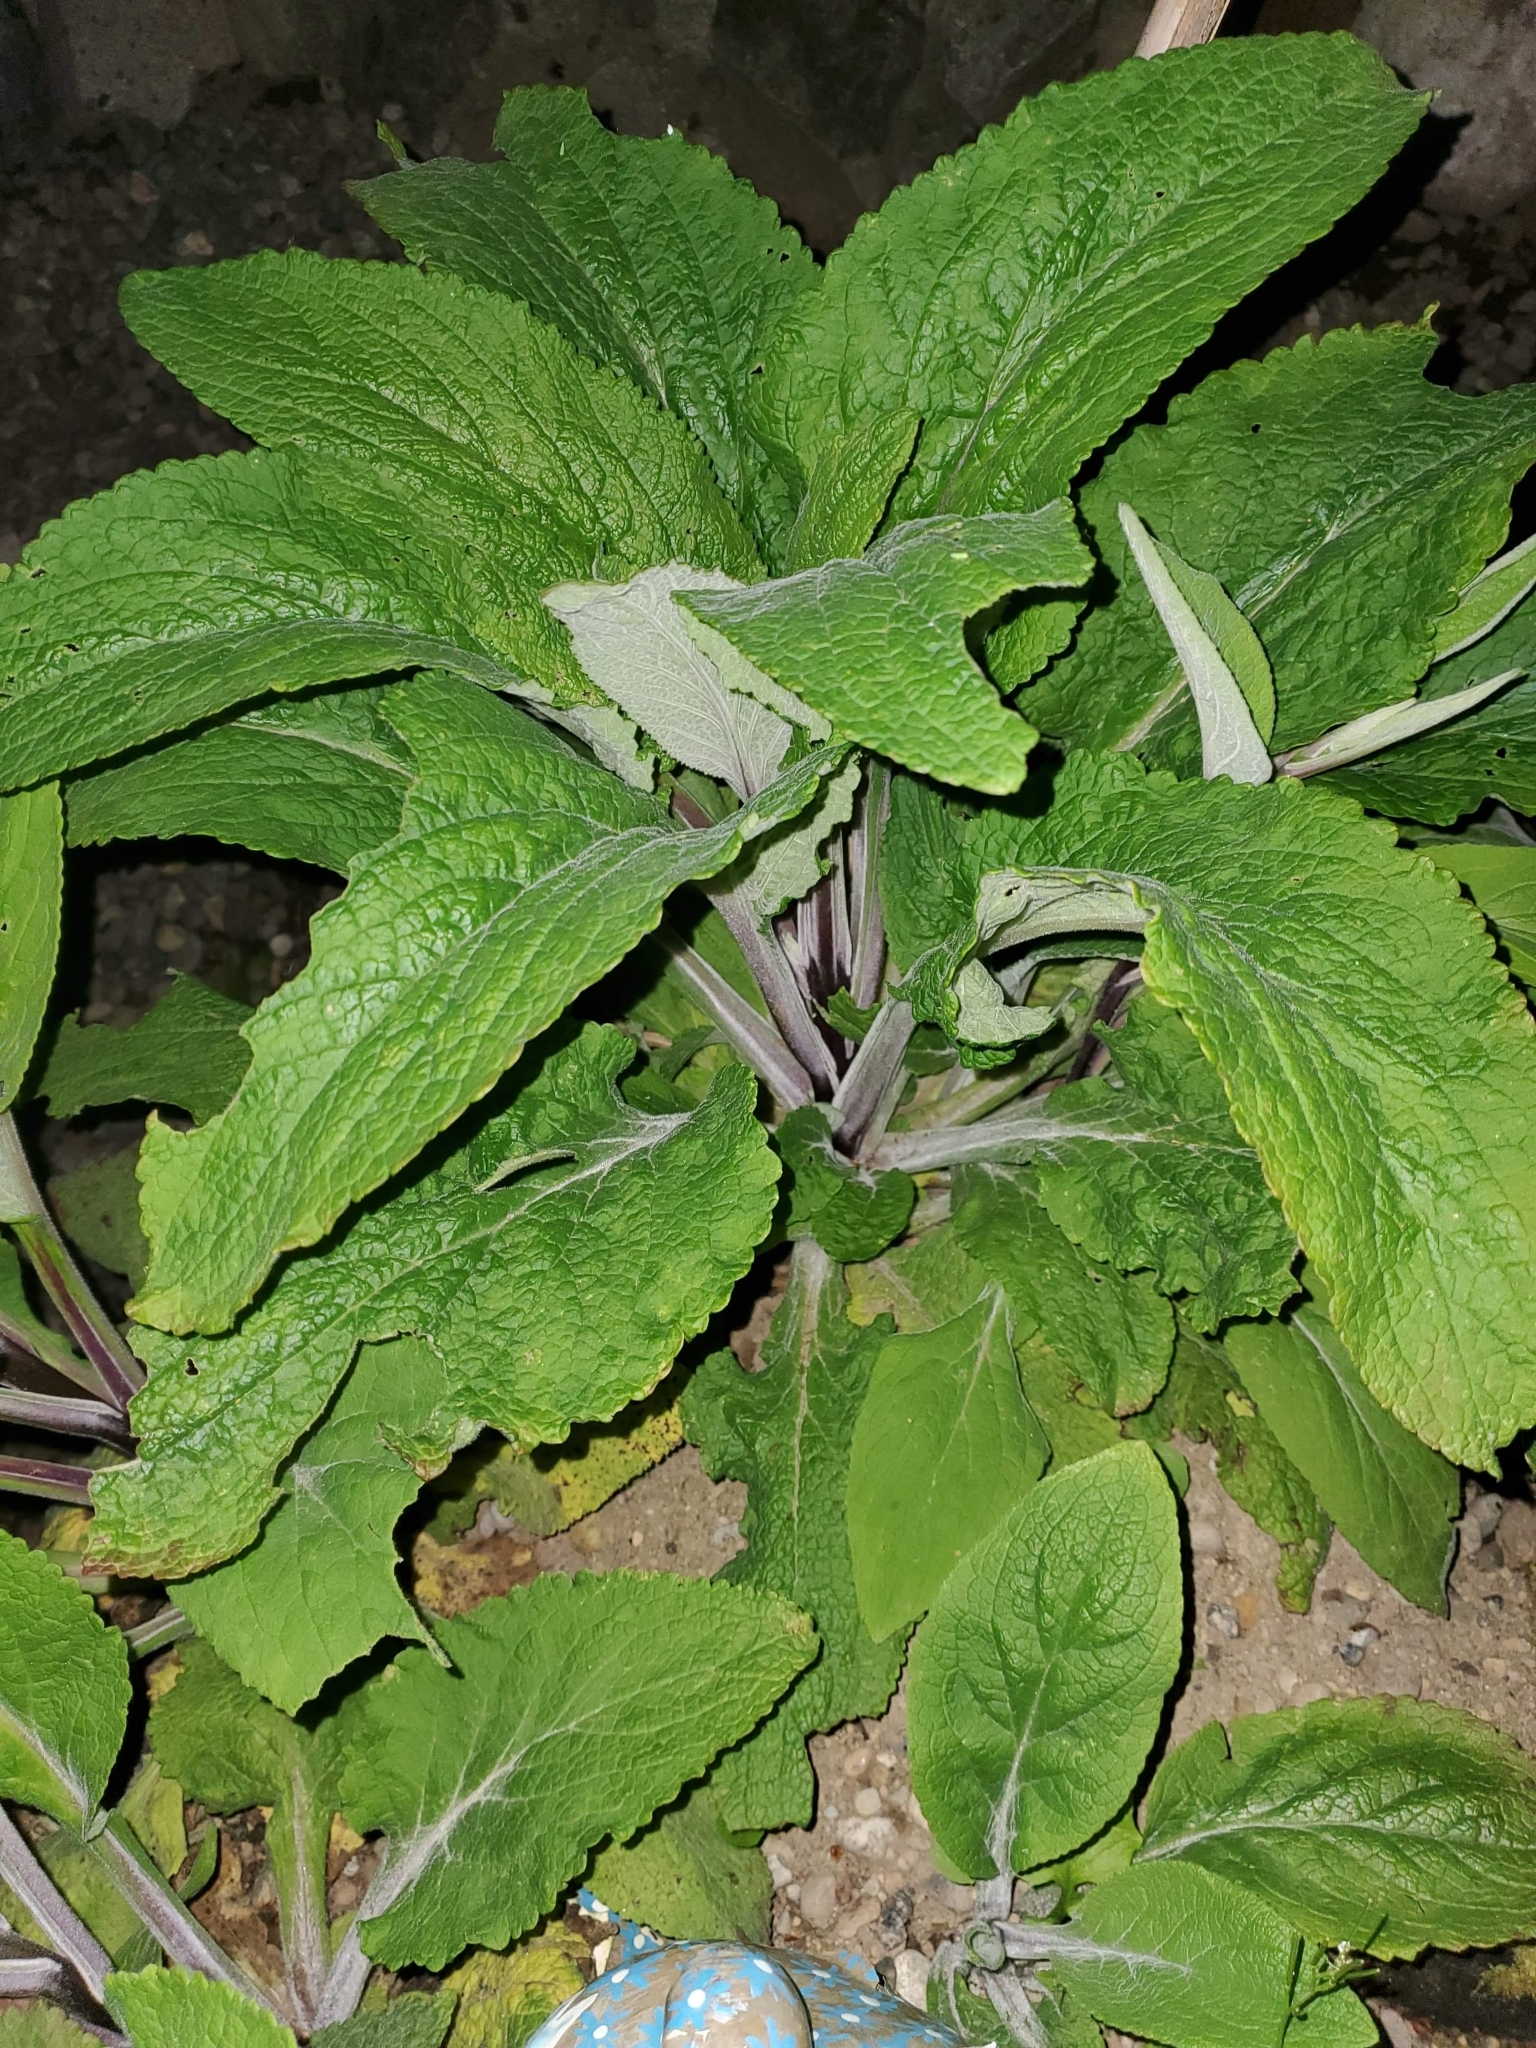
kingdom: Plantae
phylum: Tracheophyta
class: Magnoliopsida
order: Lamiales
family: Plantaginaceae
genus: Digitalis
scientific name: Digitalis purpurea
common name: Foxglove
